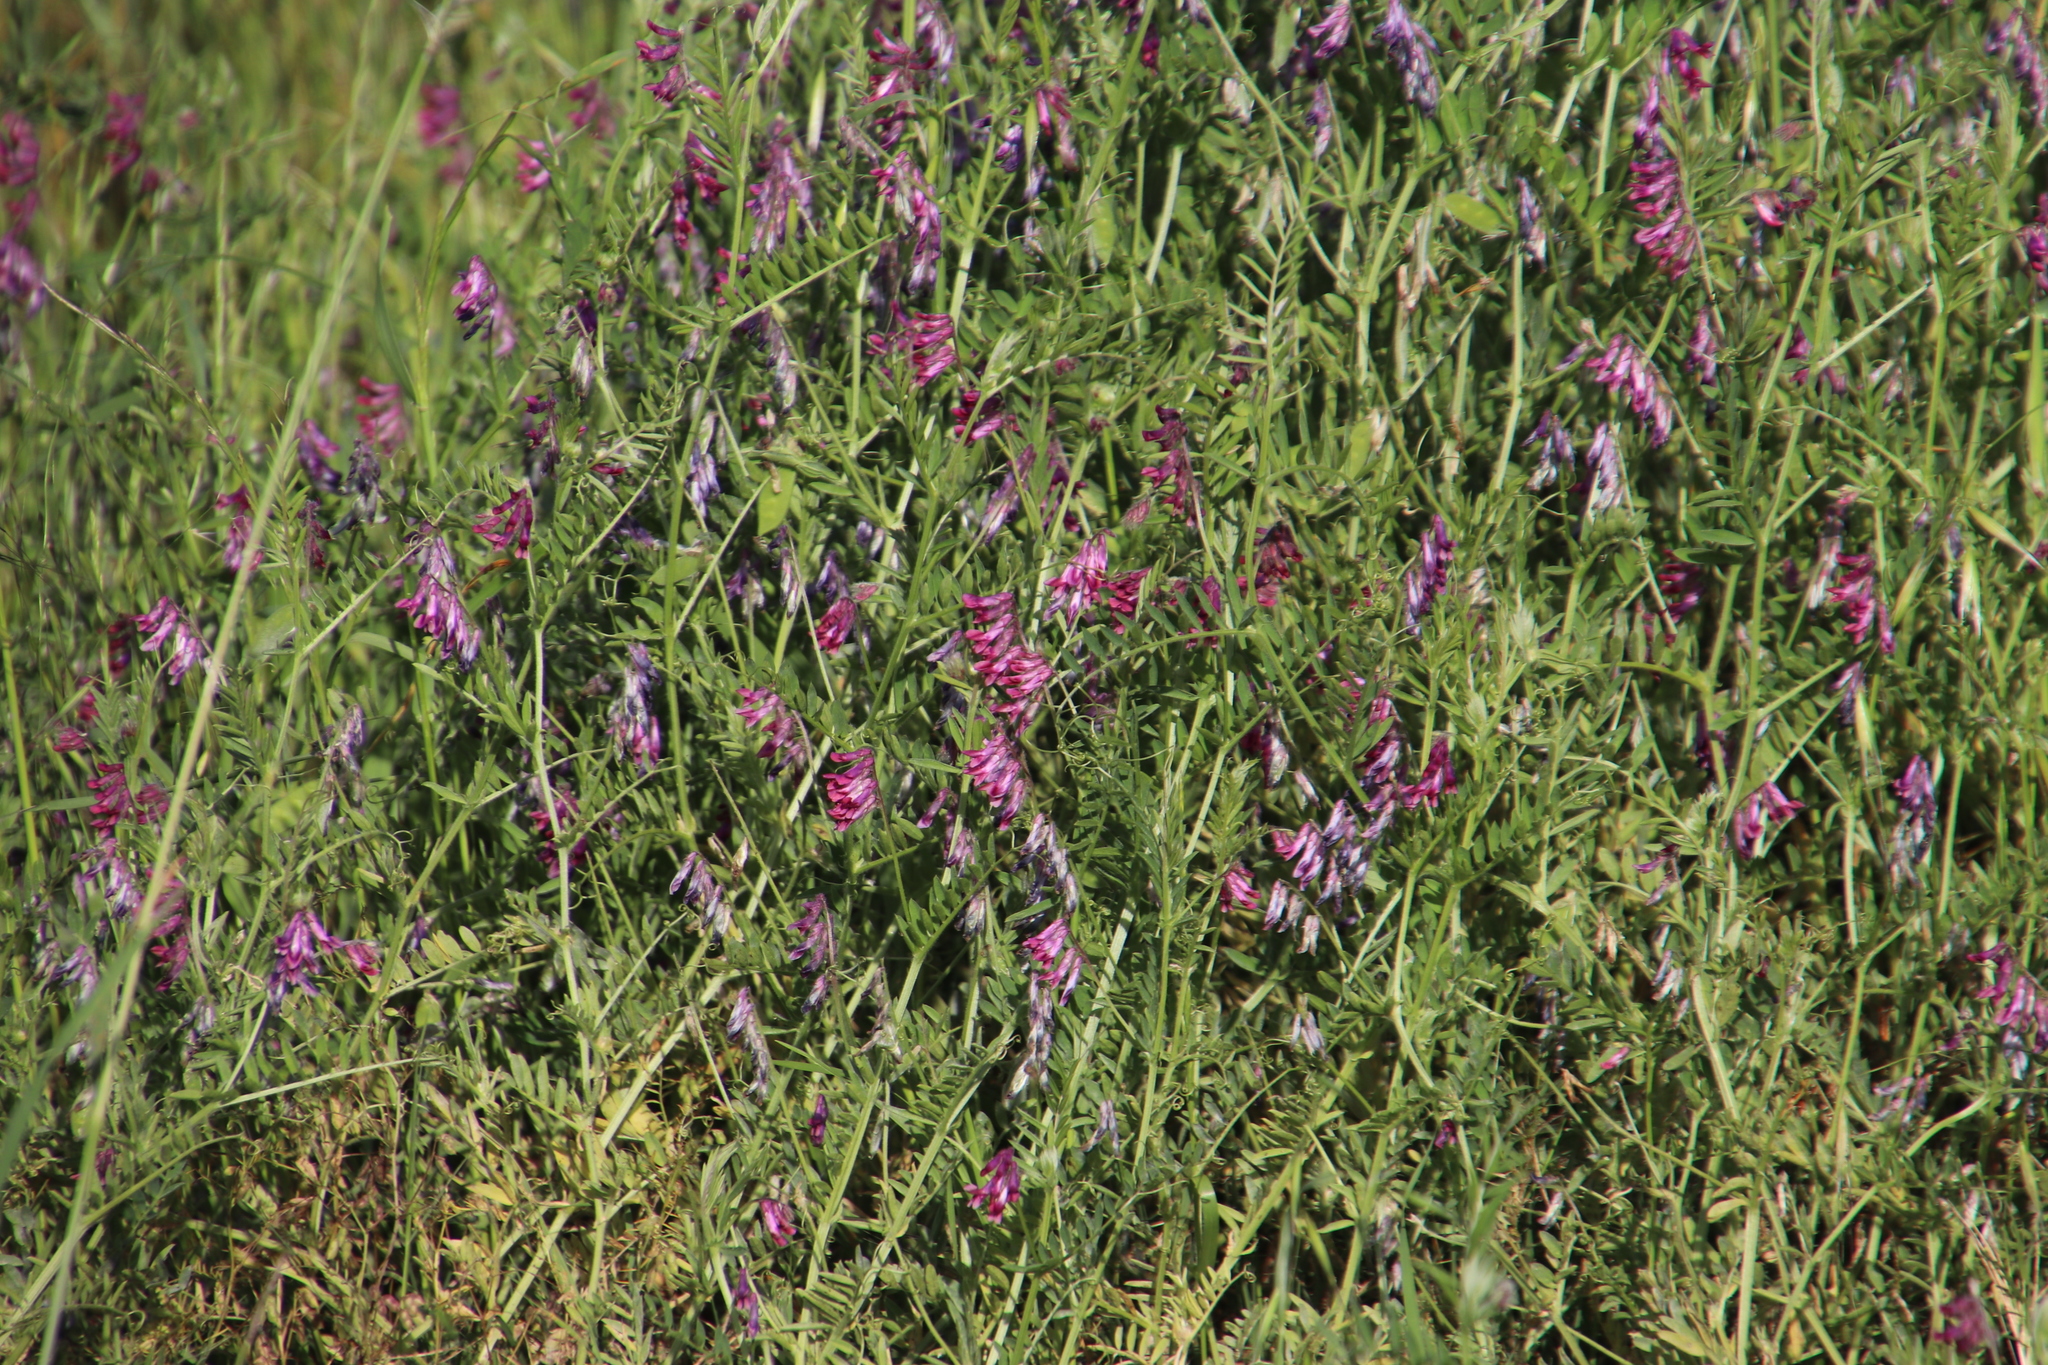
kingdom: Plantae
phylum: Tracheophyta
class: Magnoliopsida
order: Fabales
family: Fabaceae
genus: Vicia
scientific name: Vicia benghalensis
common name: Purple vetch
